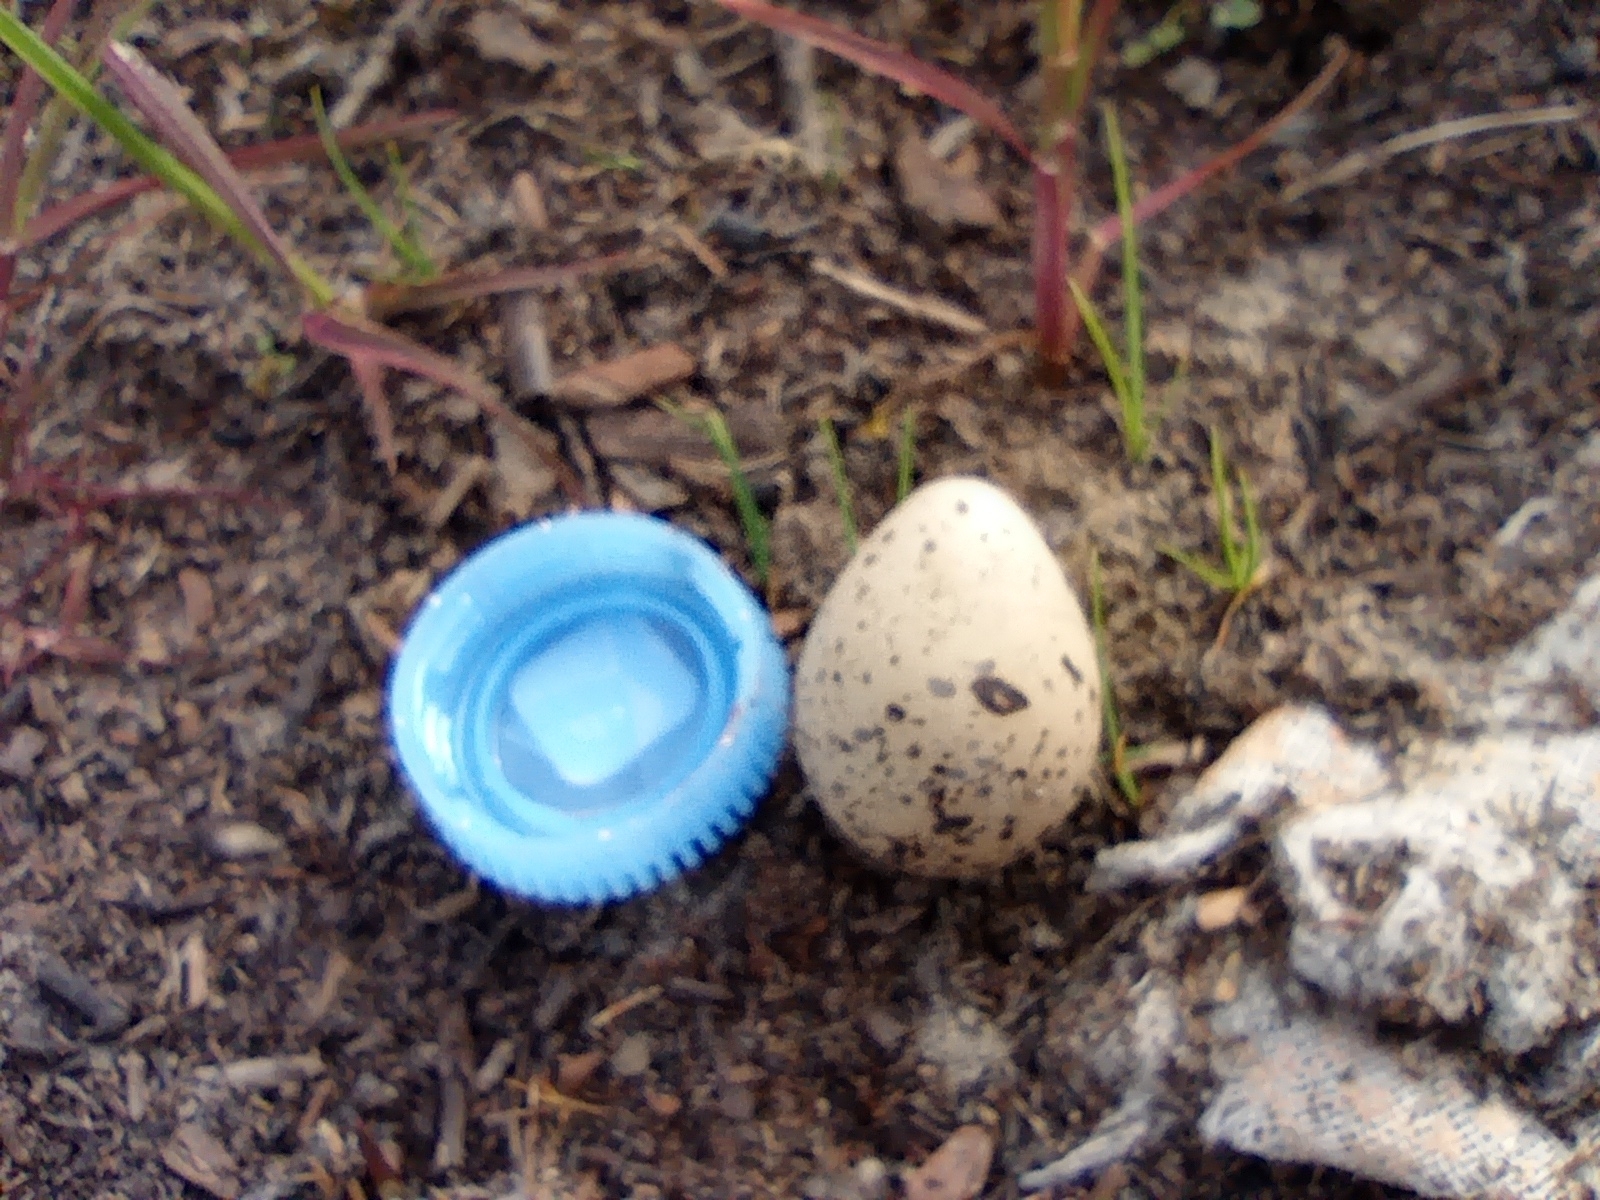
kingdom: Animalia
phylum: Chordata
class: Aves
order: Charadriiformes
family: Scolopacidae
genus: Calidris
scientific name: Calidris pugnax
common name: Ruff
